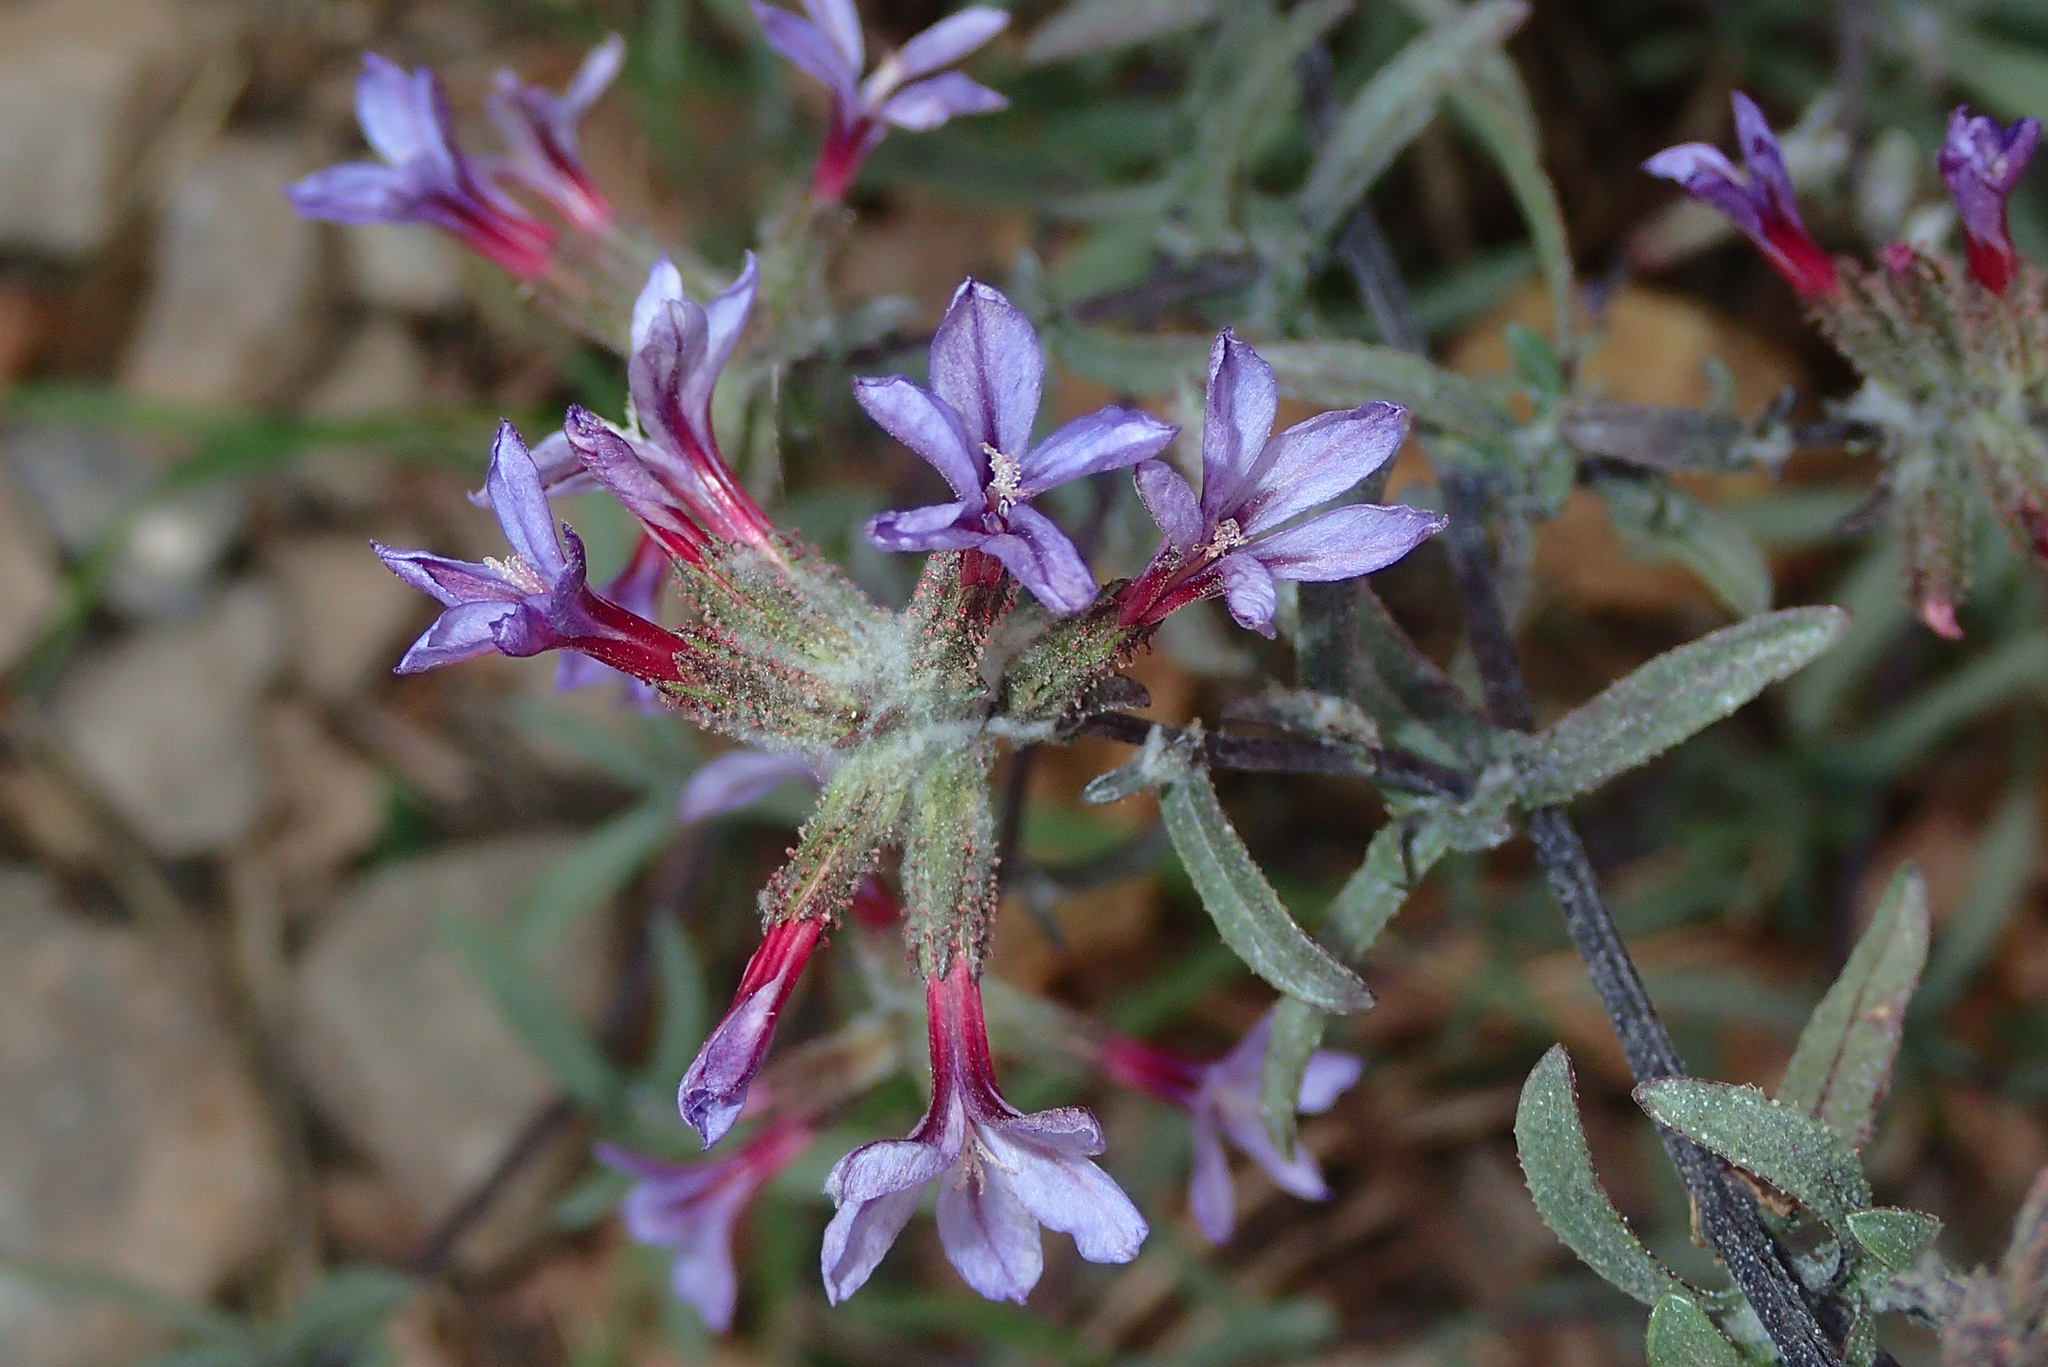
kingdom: Plantae
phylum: Tracheophyta
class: Magnoliopsida
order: Caryophyllales
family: Plumbaginaceae
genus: Plumbago
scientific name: Plumbago europaea
